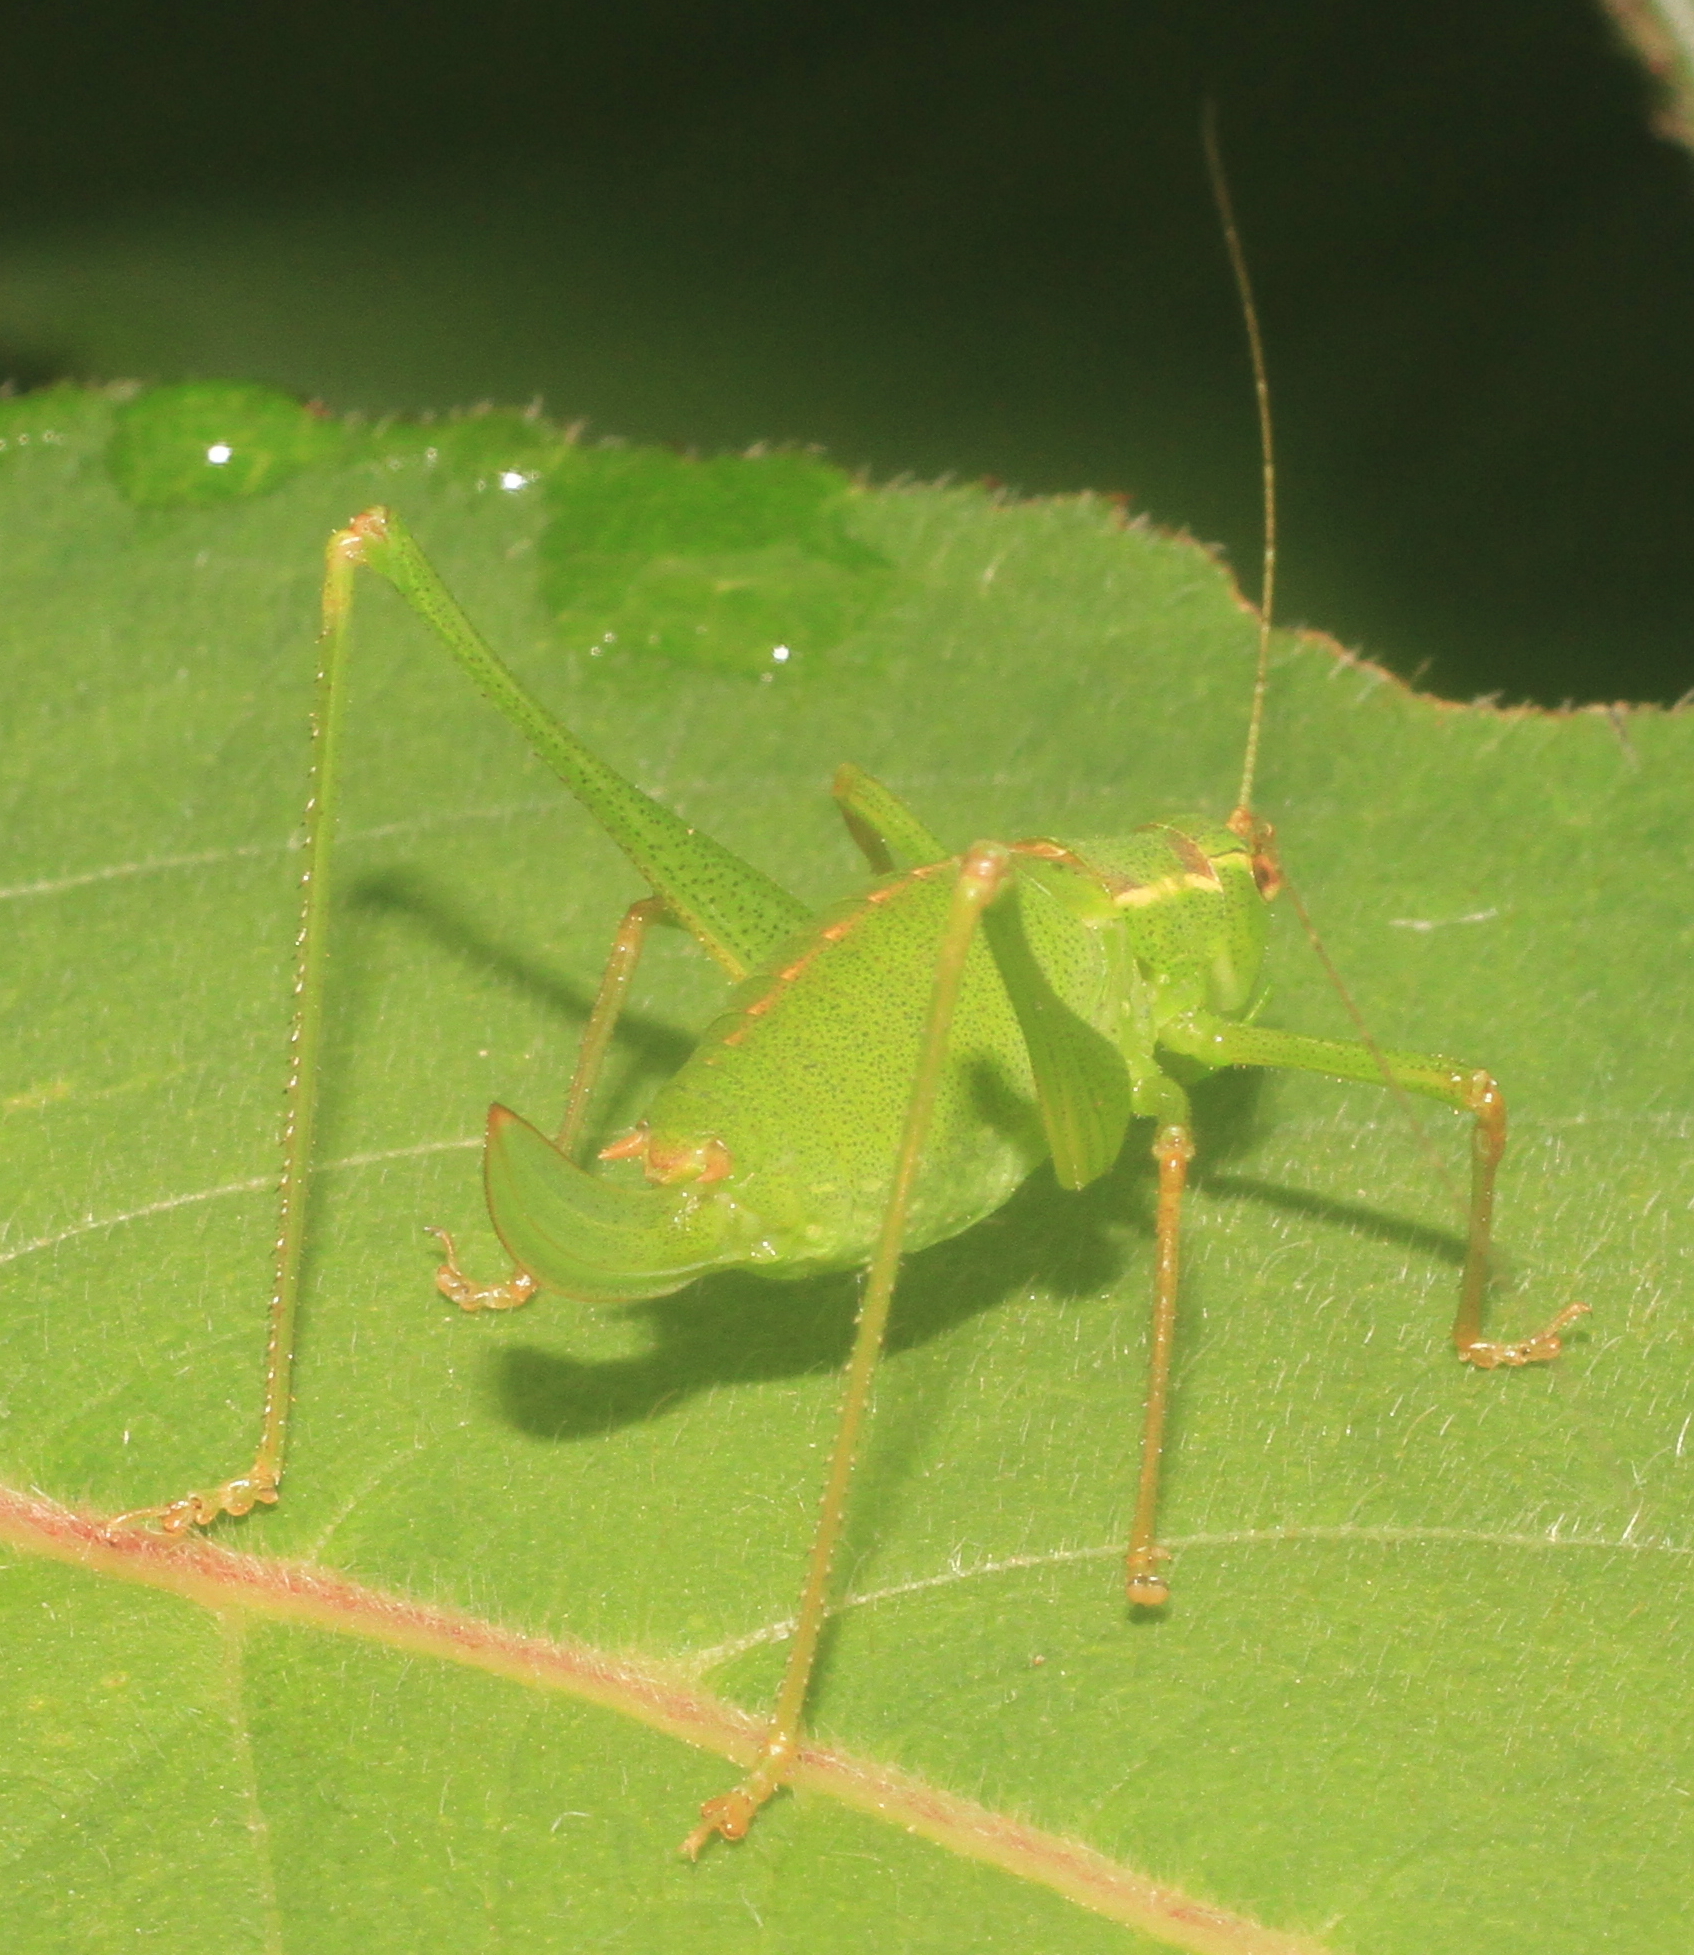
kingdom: Animalia
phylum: Arthropoda
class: Insecta
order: Orthoptera
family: Tettigoniidae
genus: Leptophyes
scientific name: Leptophyes punctatissima
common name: Speckled bush-cricket
